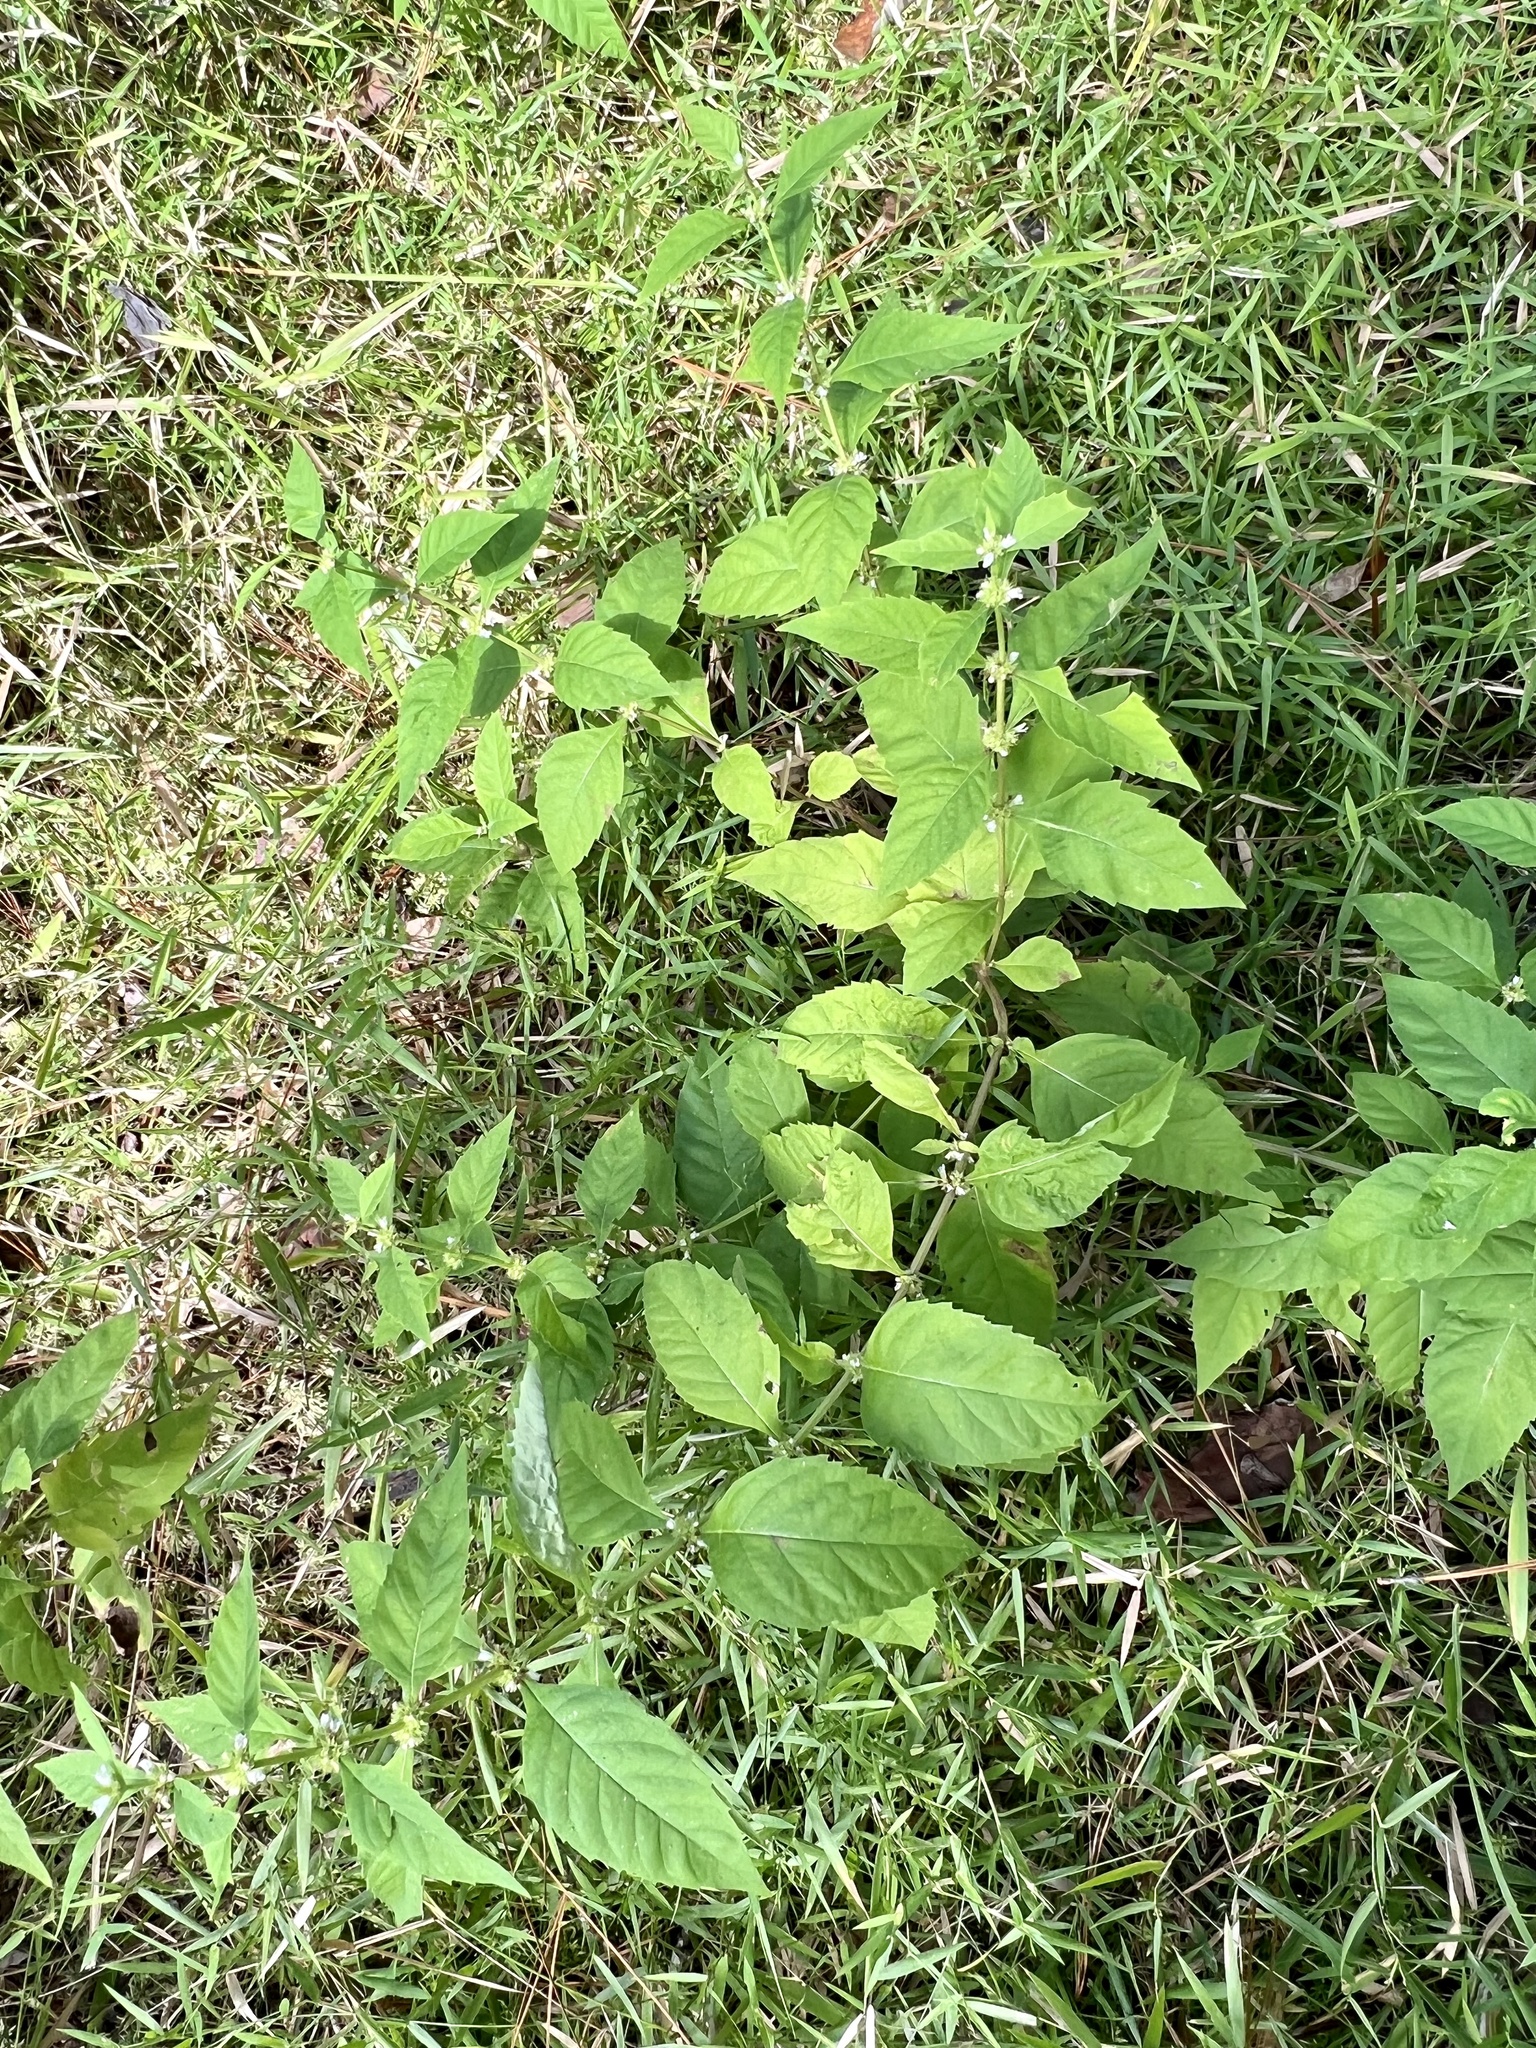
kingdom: Plantae
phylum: Tracheophyta
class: Magnoliopsida
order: Lamiales
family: Lamiaceae
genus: Lycopus
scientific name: Lycopus rubellus
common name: Stalked bugleweed
